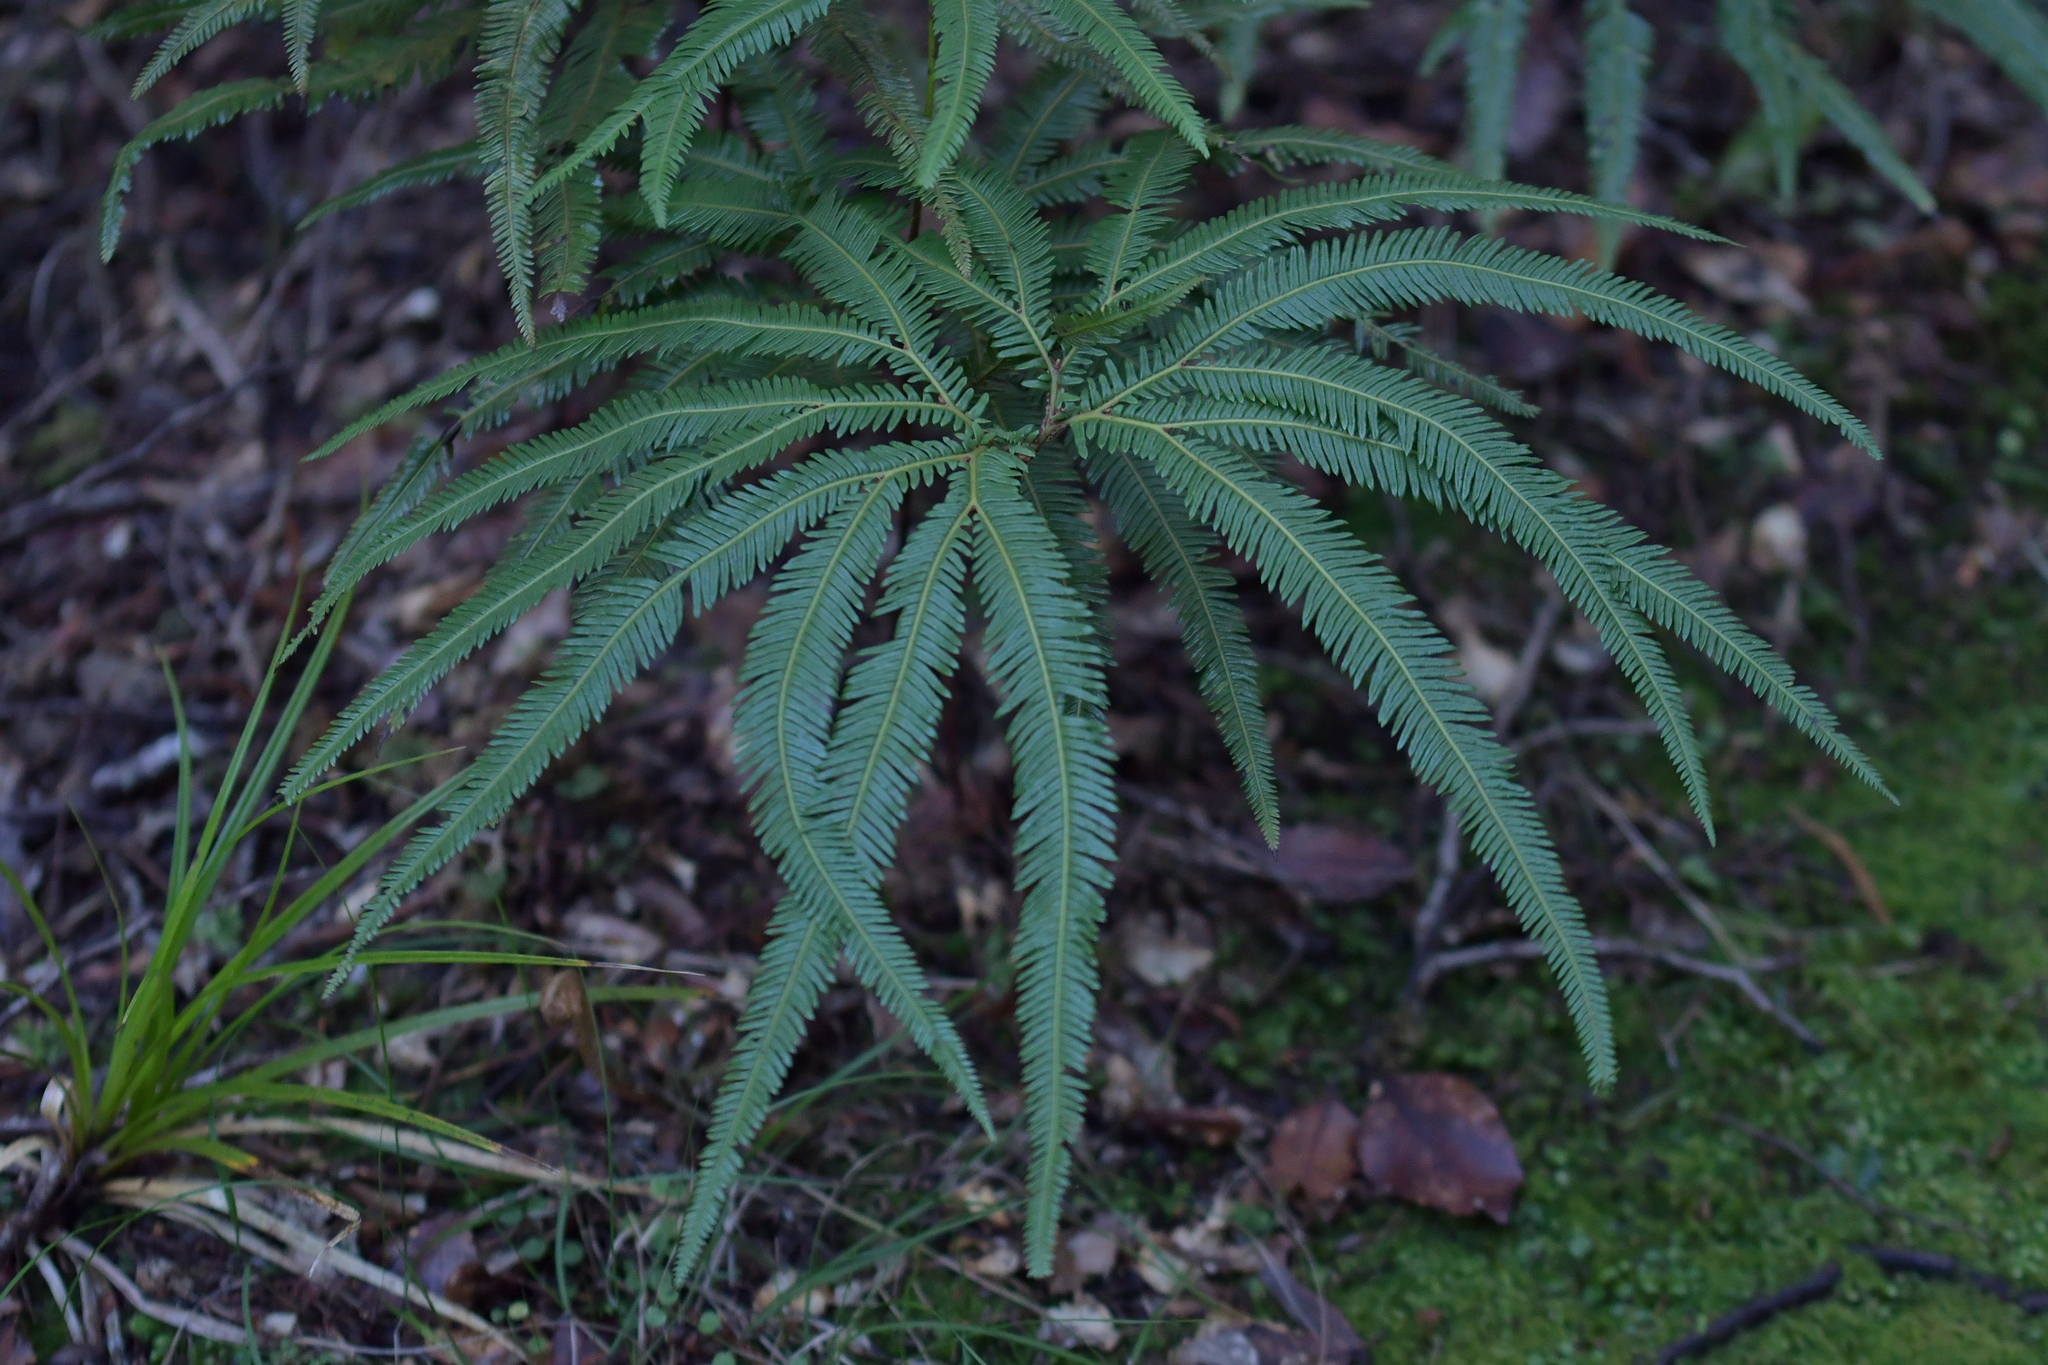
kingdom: Plantae
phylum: Tracheophyta
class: Polypodiopsida
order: Gleicheniales
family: Gleicheniaceae
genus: Sticherus
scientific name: Sticherus cunninghamii
